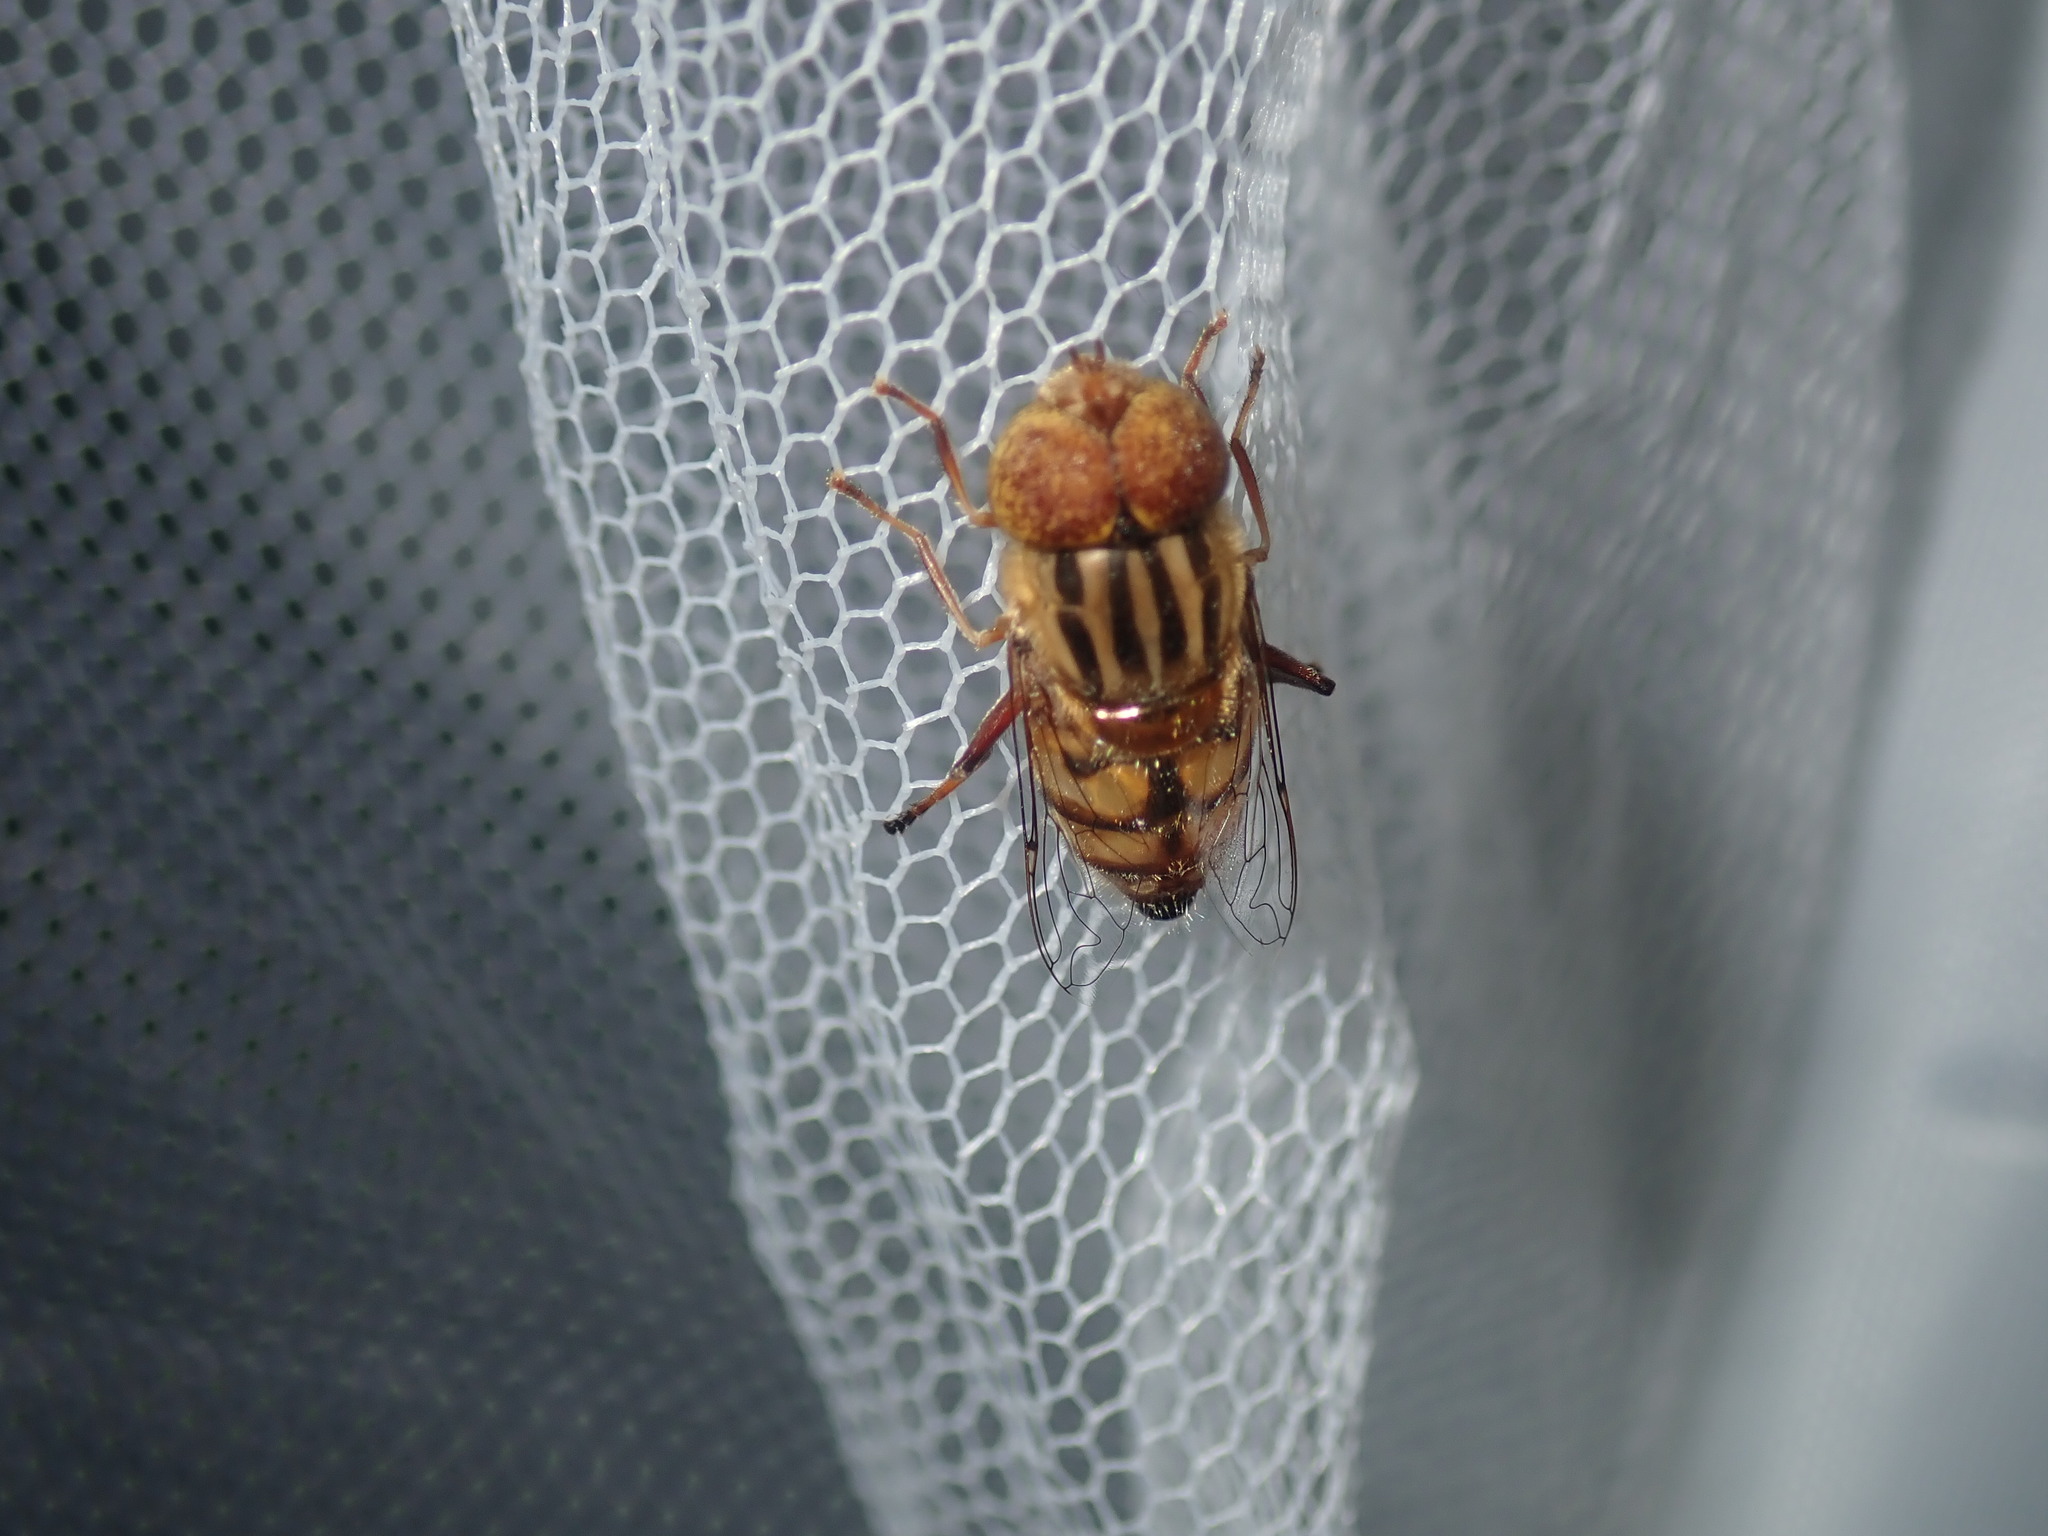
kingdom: Animalia
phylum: Arthropoda
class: Insecta
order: Diptera
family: Syrphidae
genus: Eristalinus
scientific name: Eristalinus punctulatus
